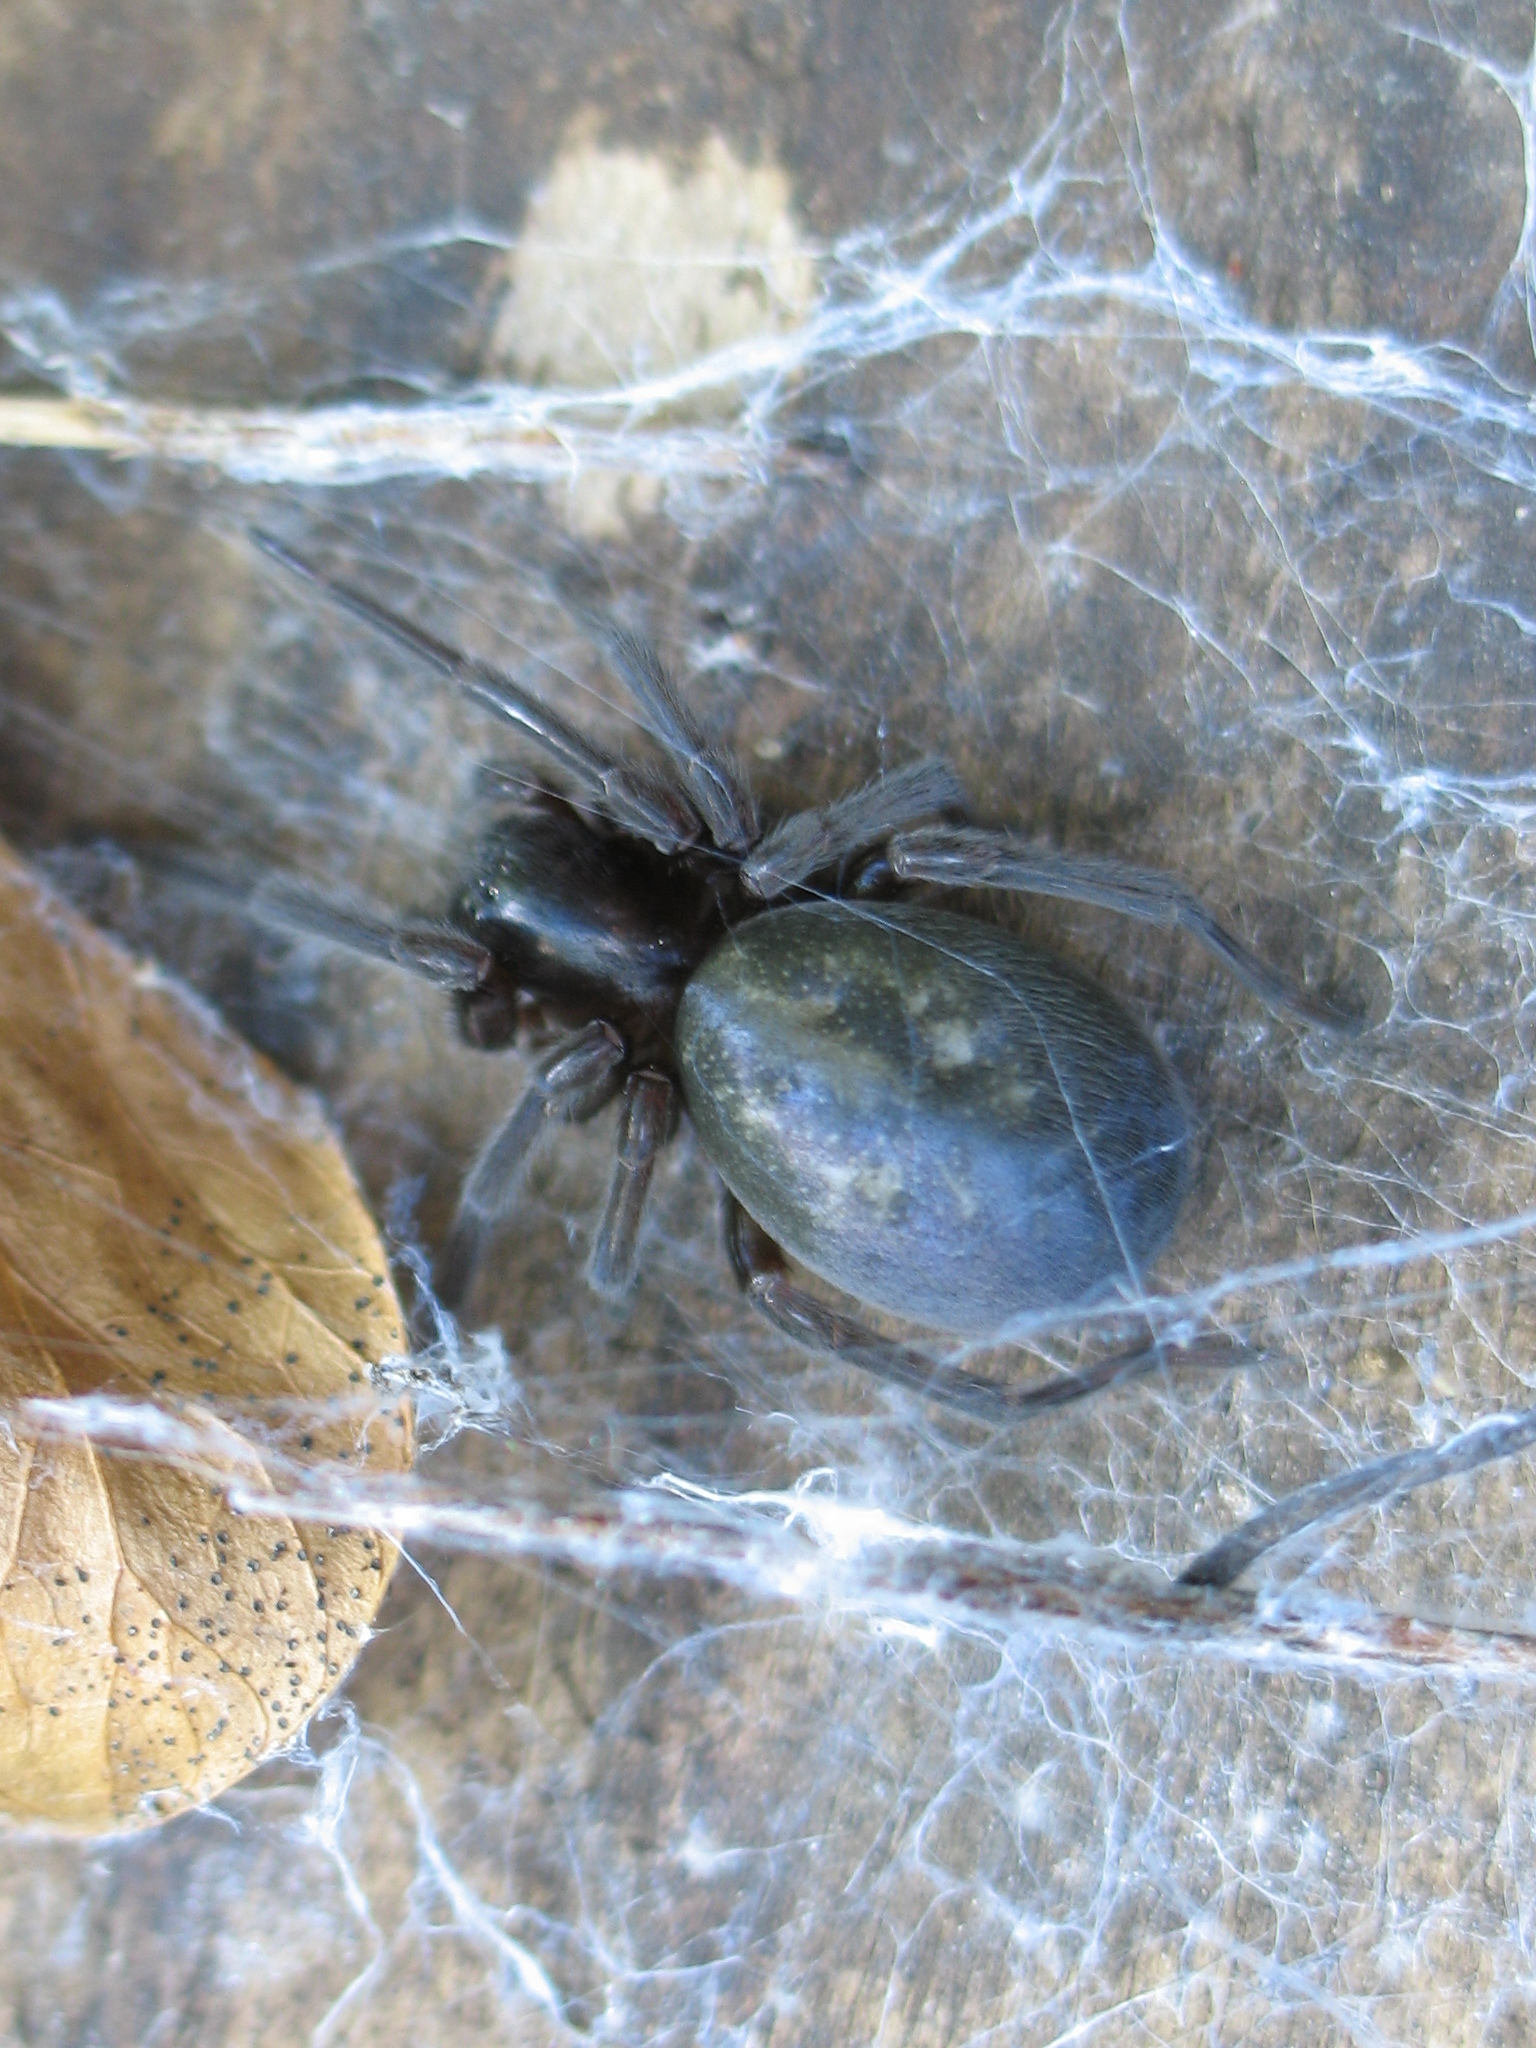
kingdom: Animalia
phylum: Arthropoda
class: Arachnida
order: Araneae
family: Amaurobiidae
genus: Amaurobius
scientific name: Amaurobius ferox
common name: Black laceweaver
